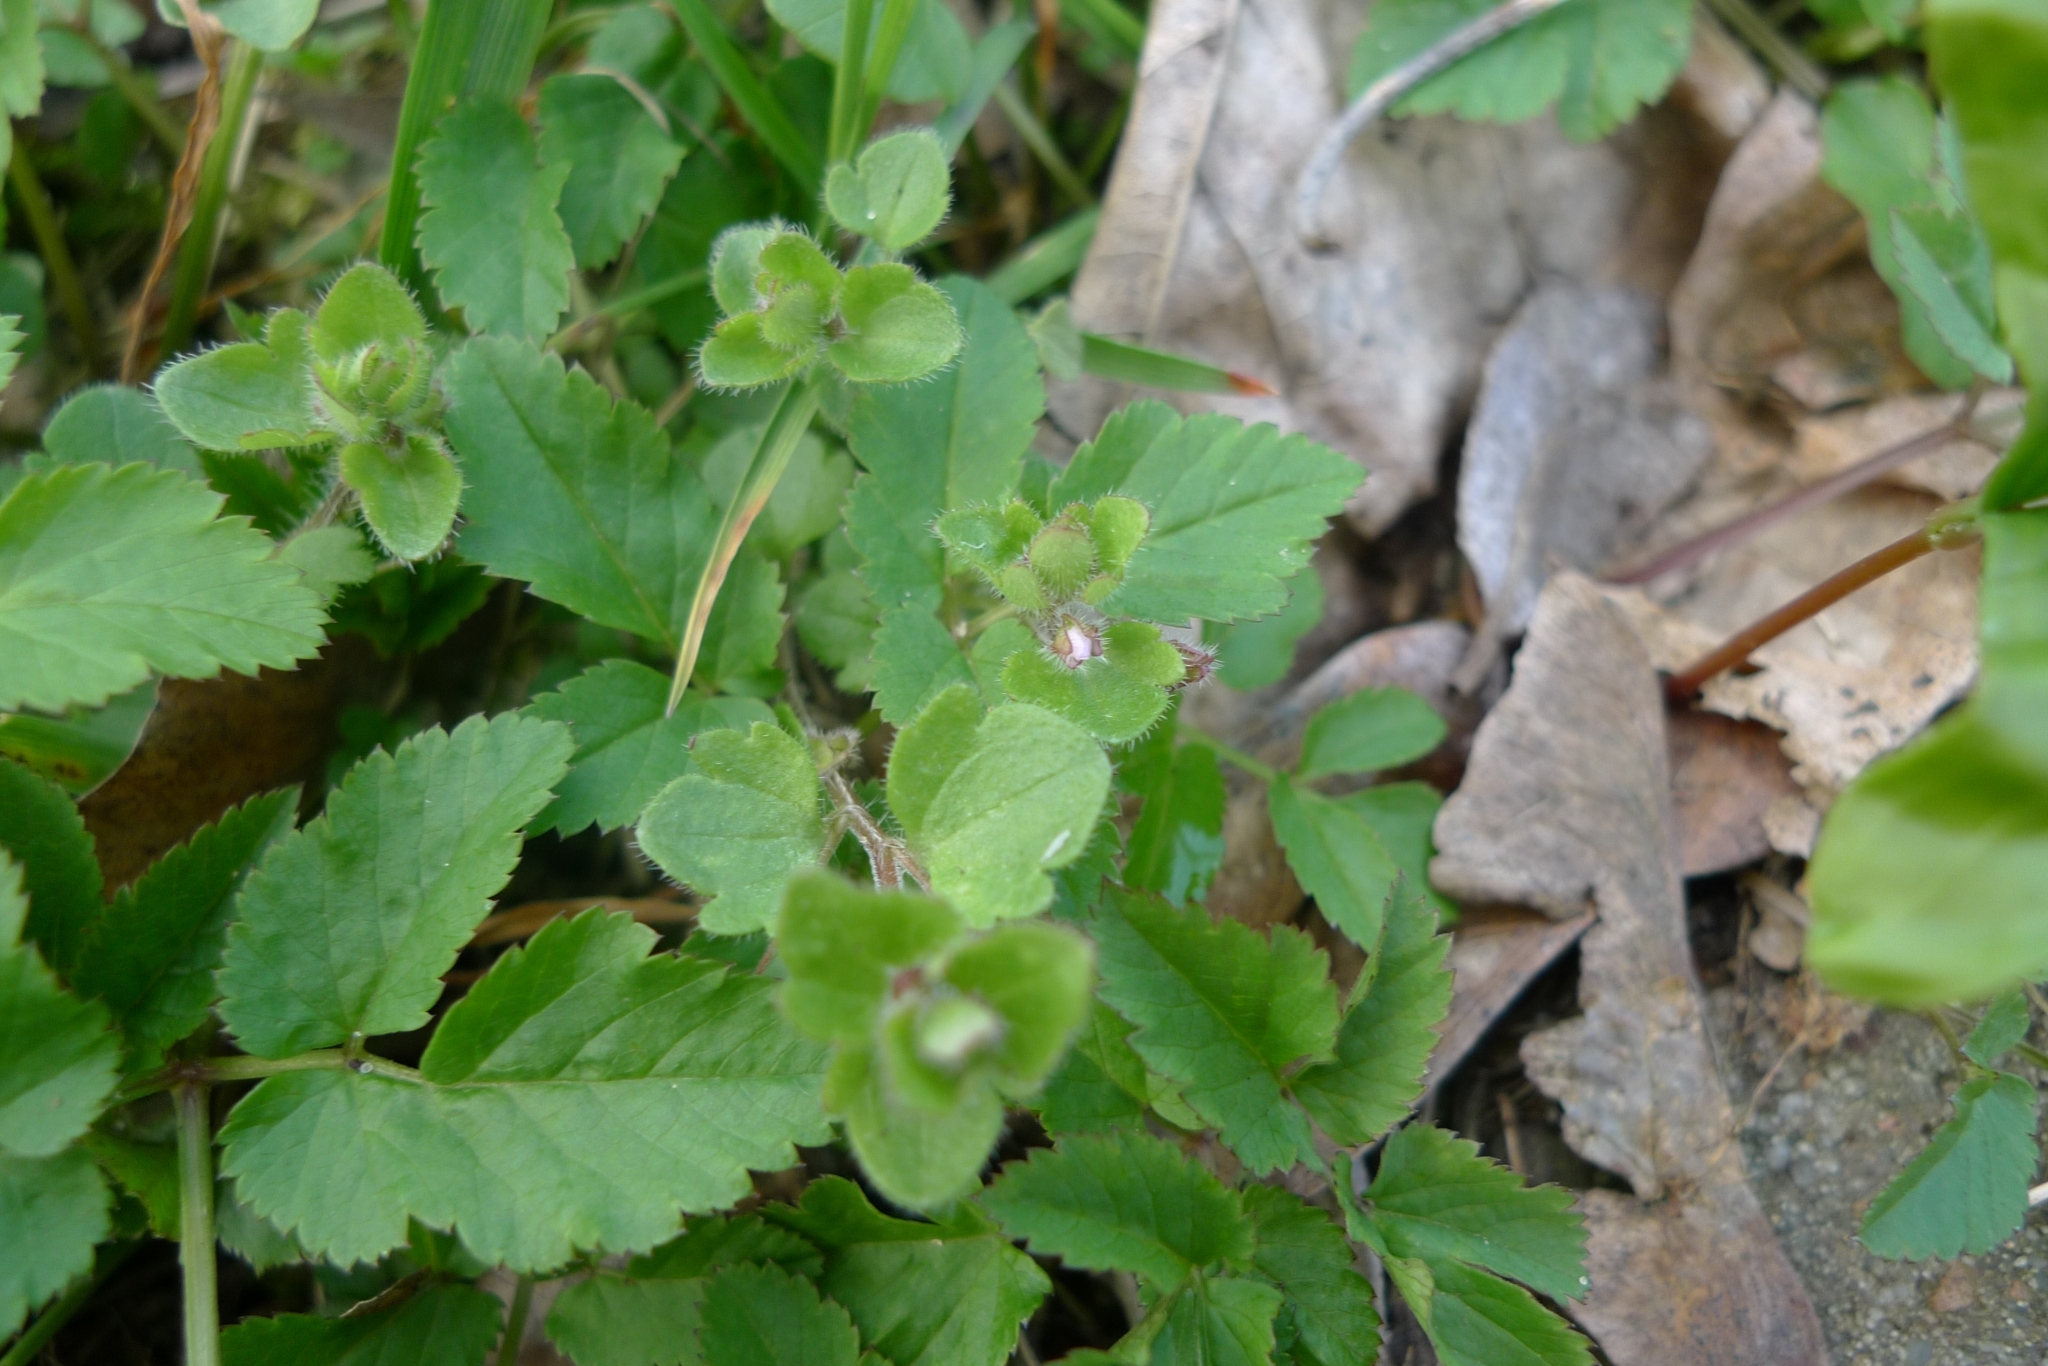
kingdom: Plantae
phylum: Tracheophyta
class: Magnoliopsida
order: Lamiales
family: Plantaginaceae
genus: Veronica
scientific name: Veronica sublobata
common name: False ivy-leaved speedwell
